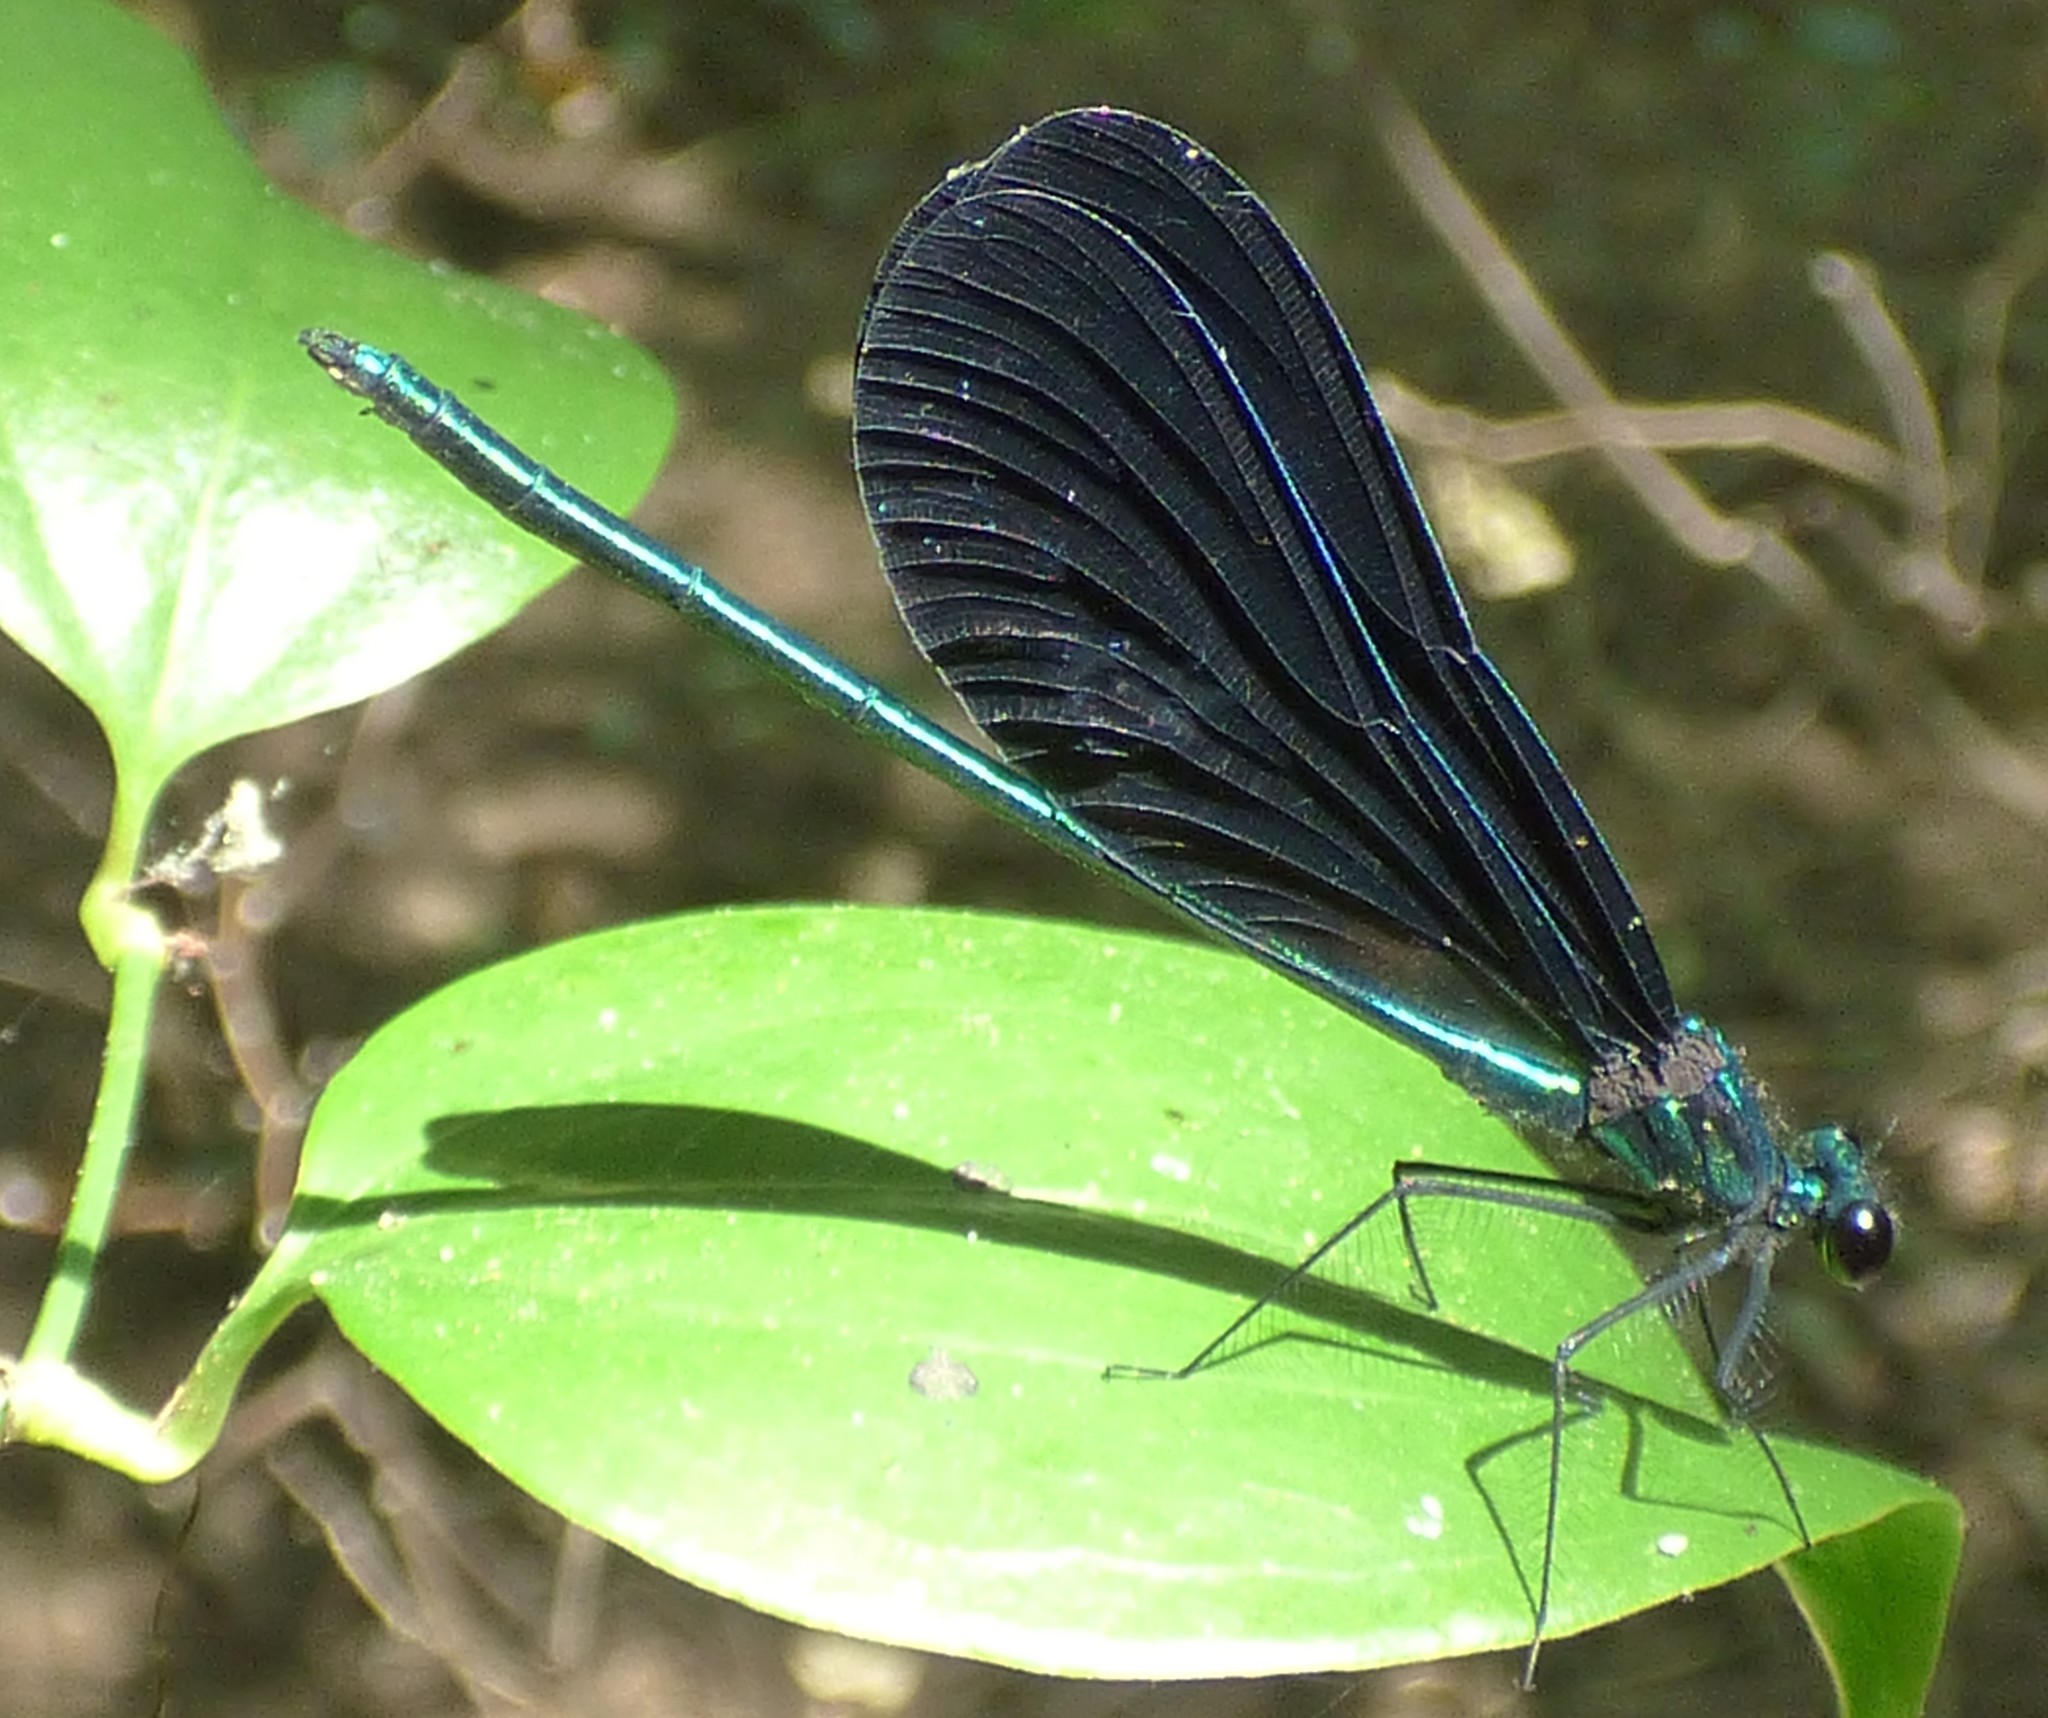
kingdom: Animalia
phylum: Arthropoda
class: Insecta
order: Odonata
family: Calopterygidae
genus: Calopteryx
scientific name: Calopteryx maculata
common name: Ebony jewelwing
